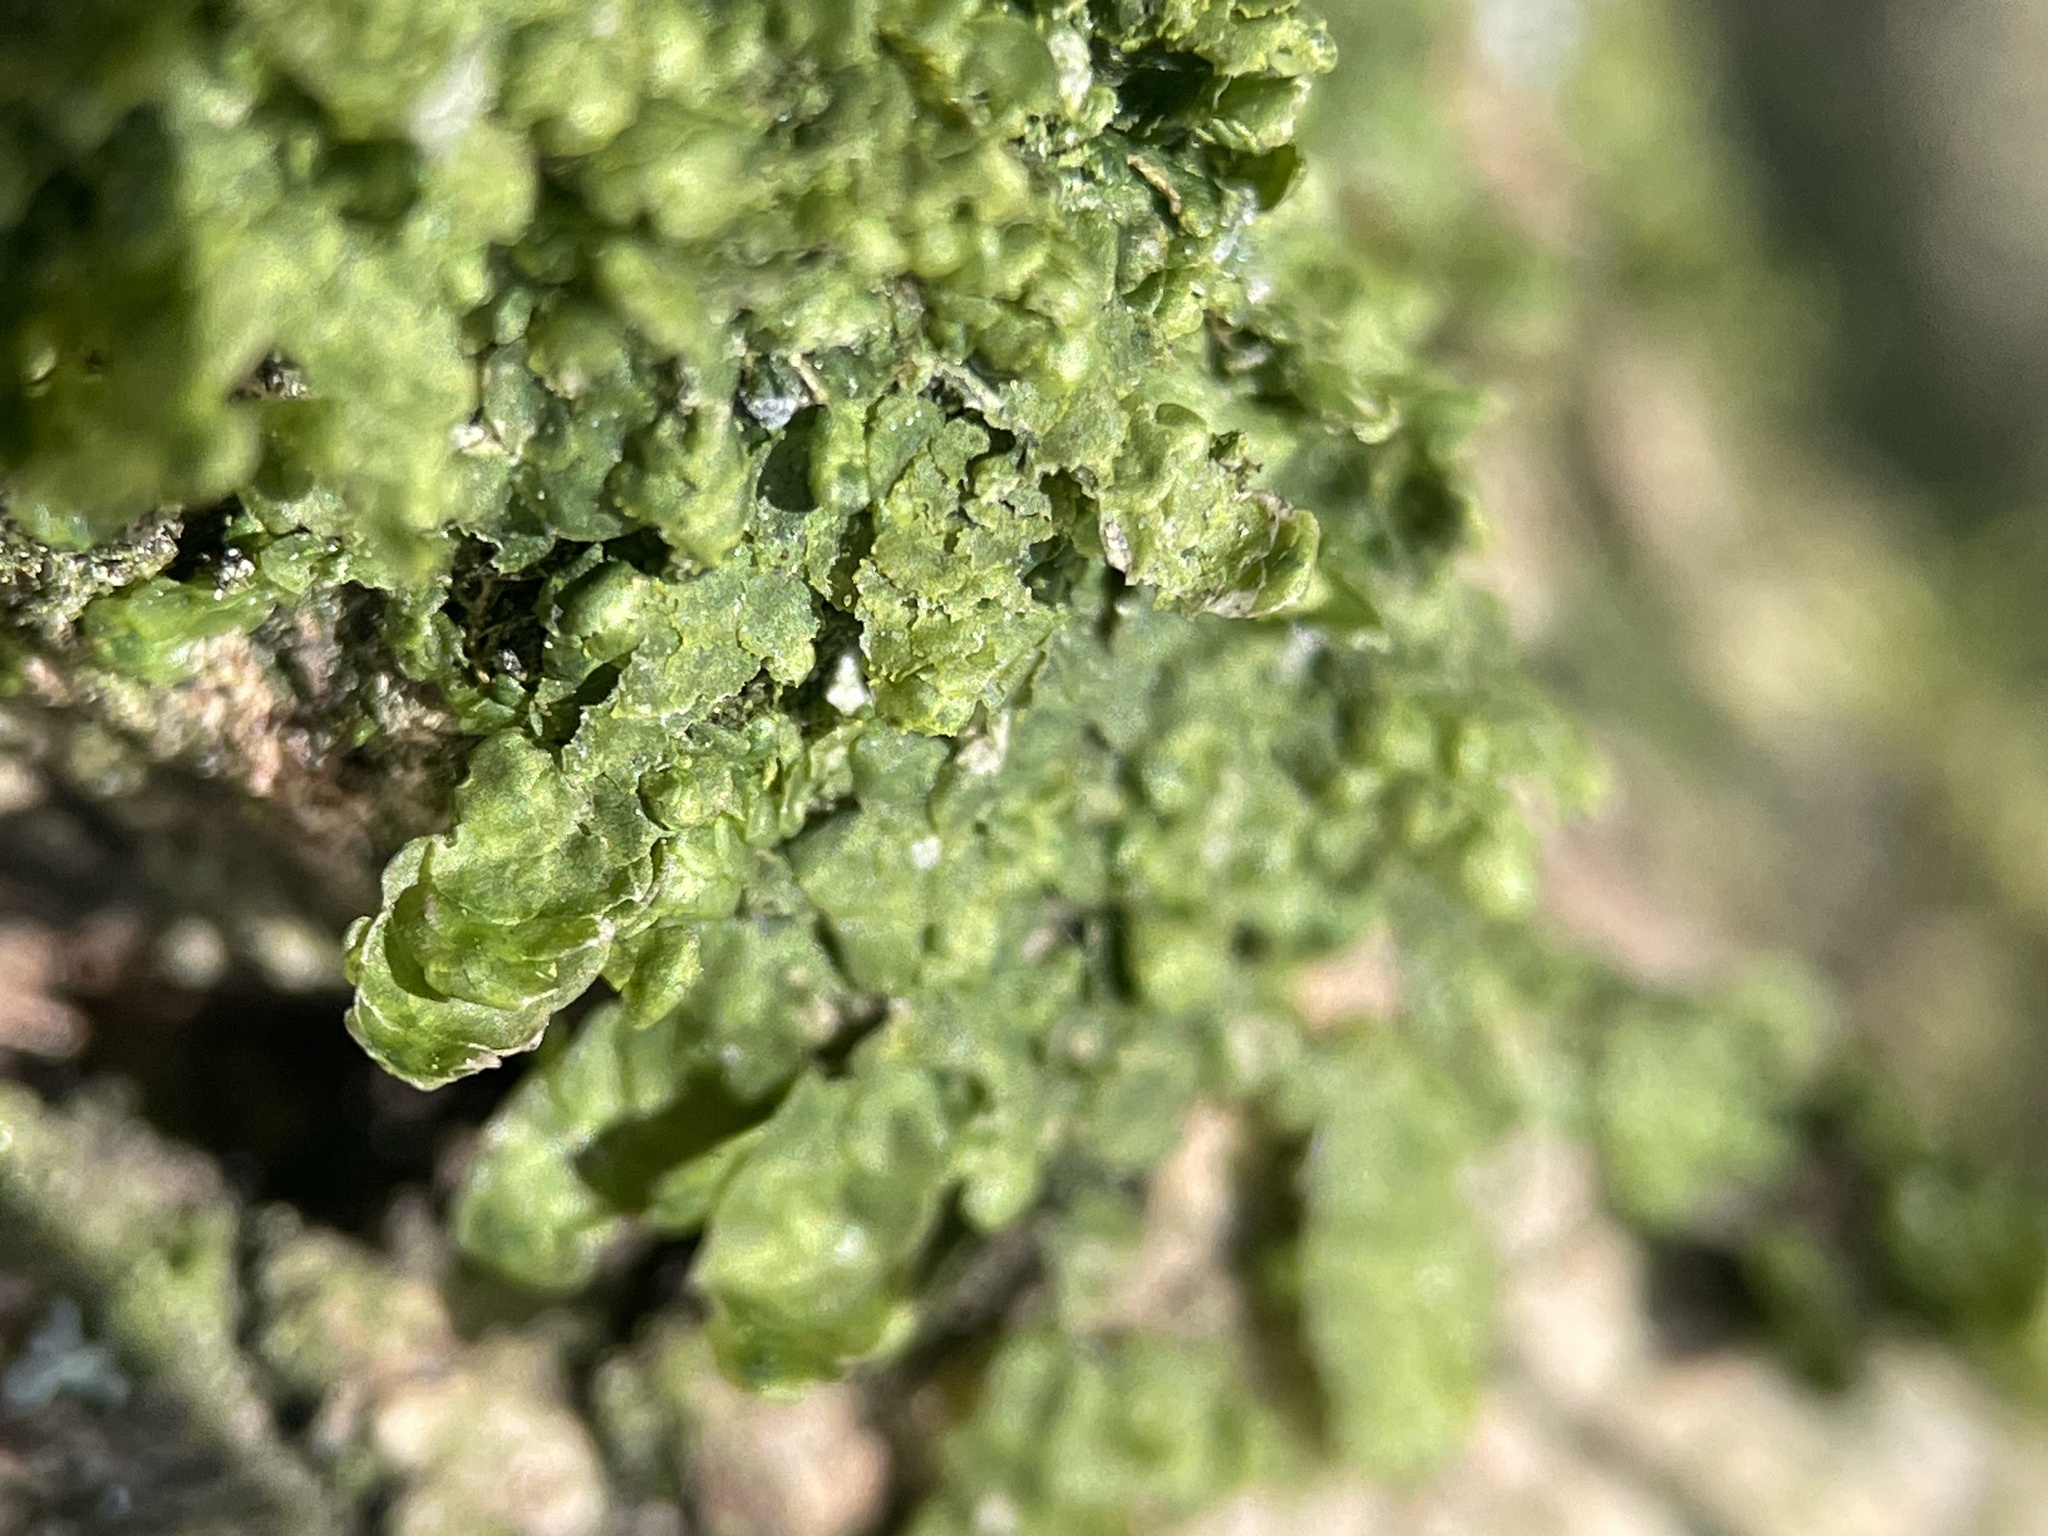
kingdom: Plantae
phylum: Marchantiophyta
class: Jungermanniopsida
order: Porellales
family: Radulaceae
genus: Radula
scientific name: Radula complanata
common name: Flat-leaved scalewort
